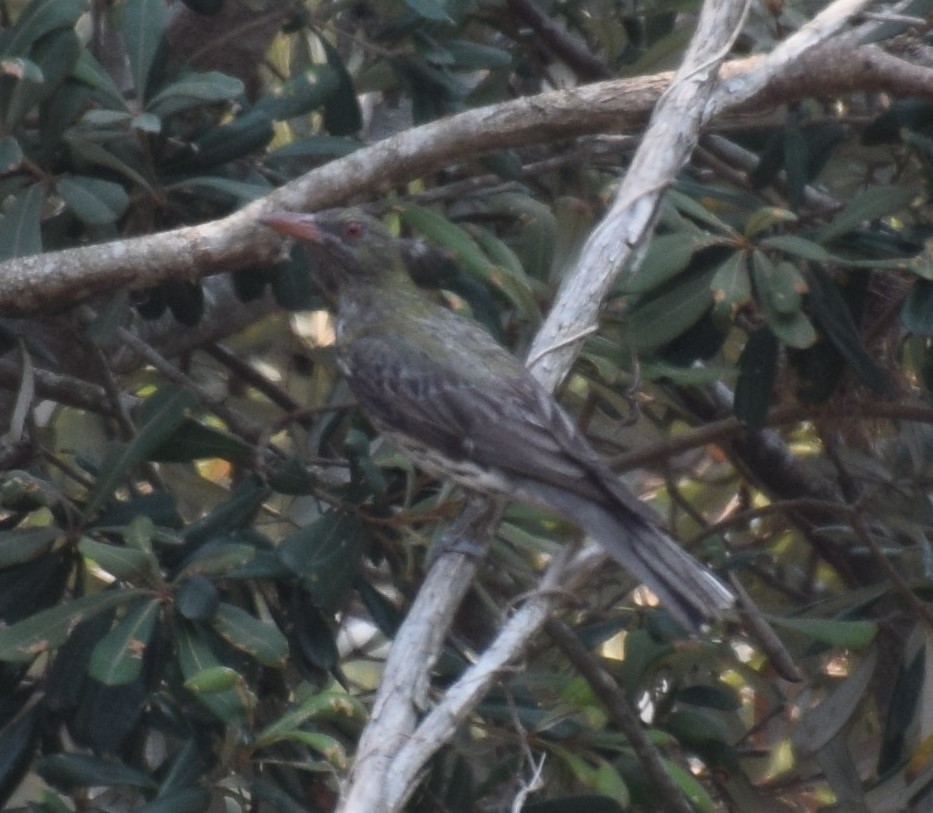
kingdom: Animalia
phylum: Chordata
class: Aves
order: Passeriformes
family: Oriolidae
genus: Oriolus
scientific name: Oriolus sagittatus
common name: Olive-backed oriole
